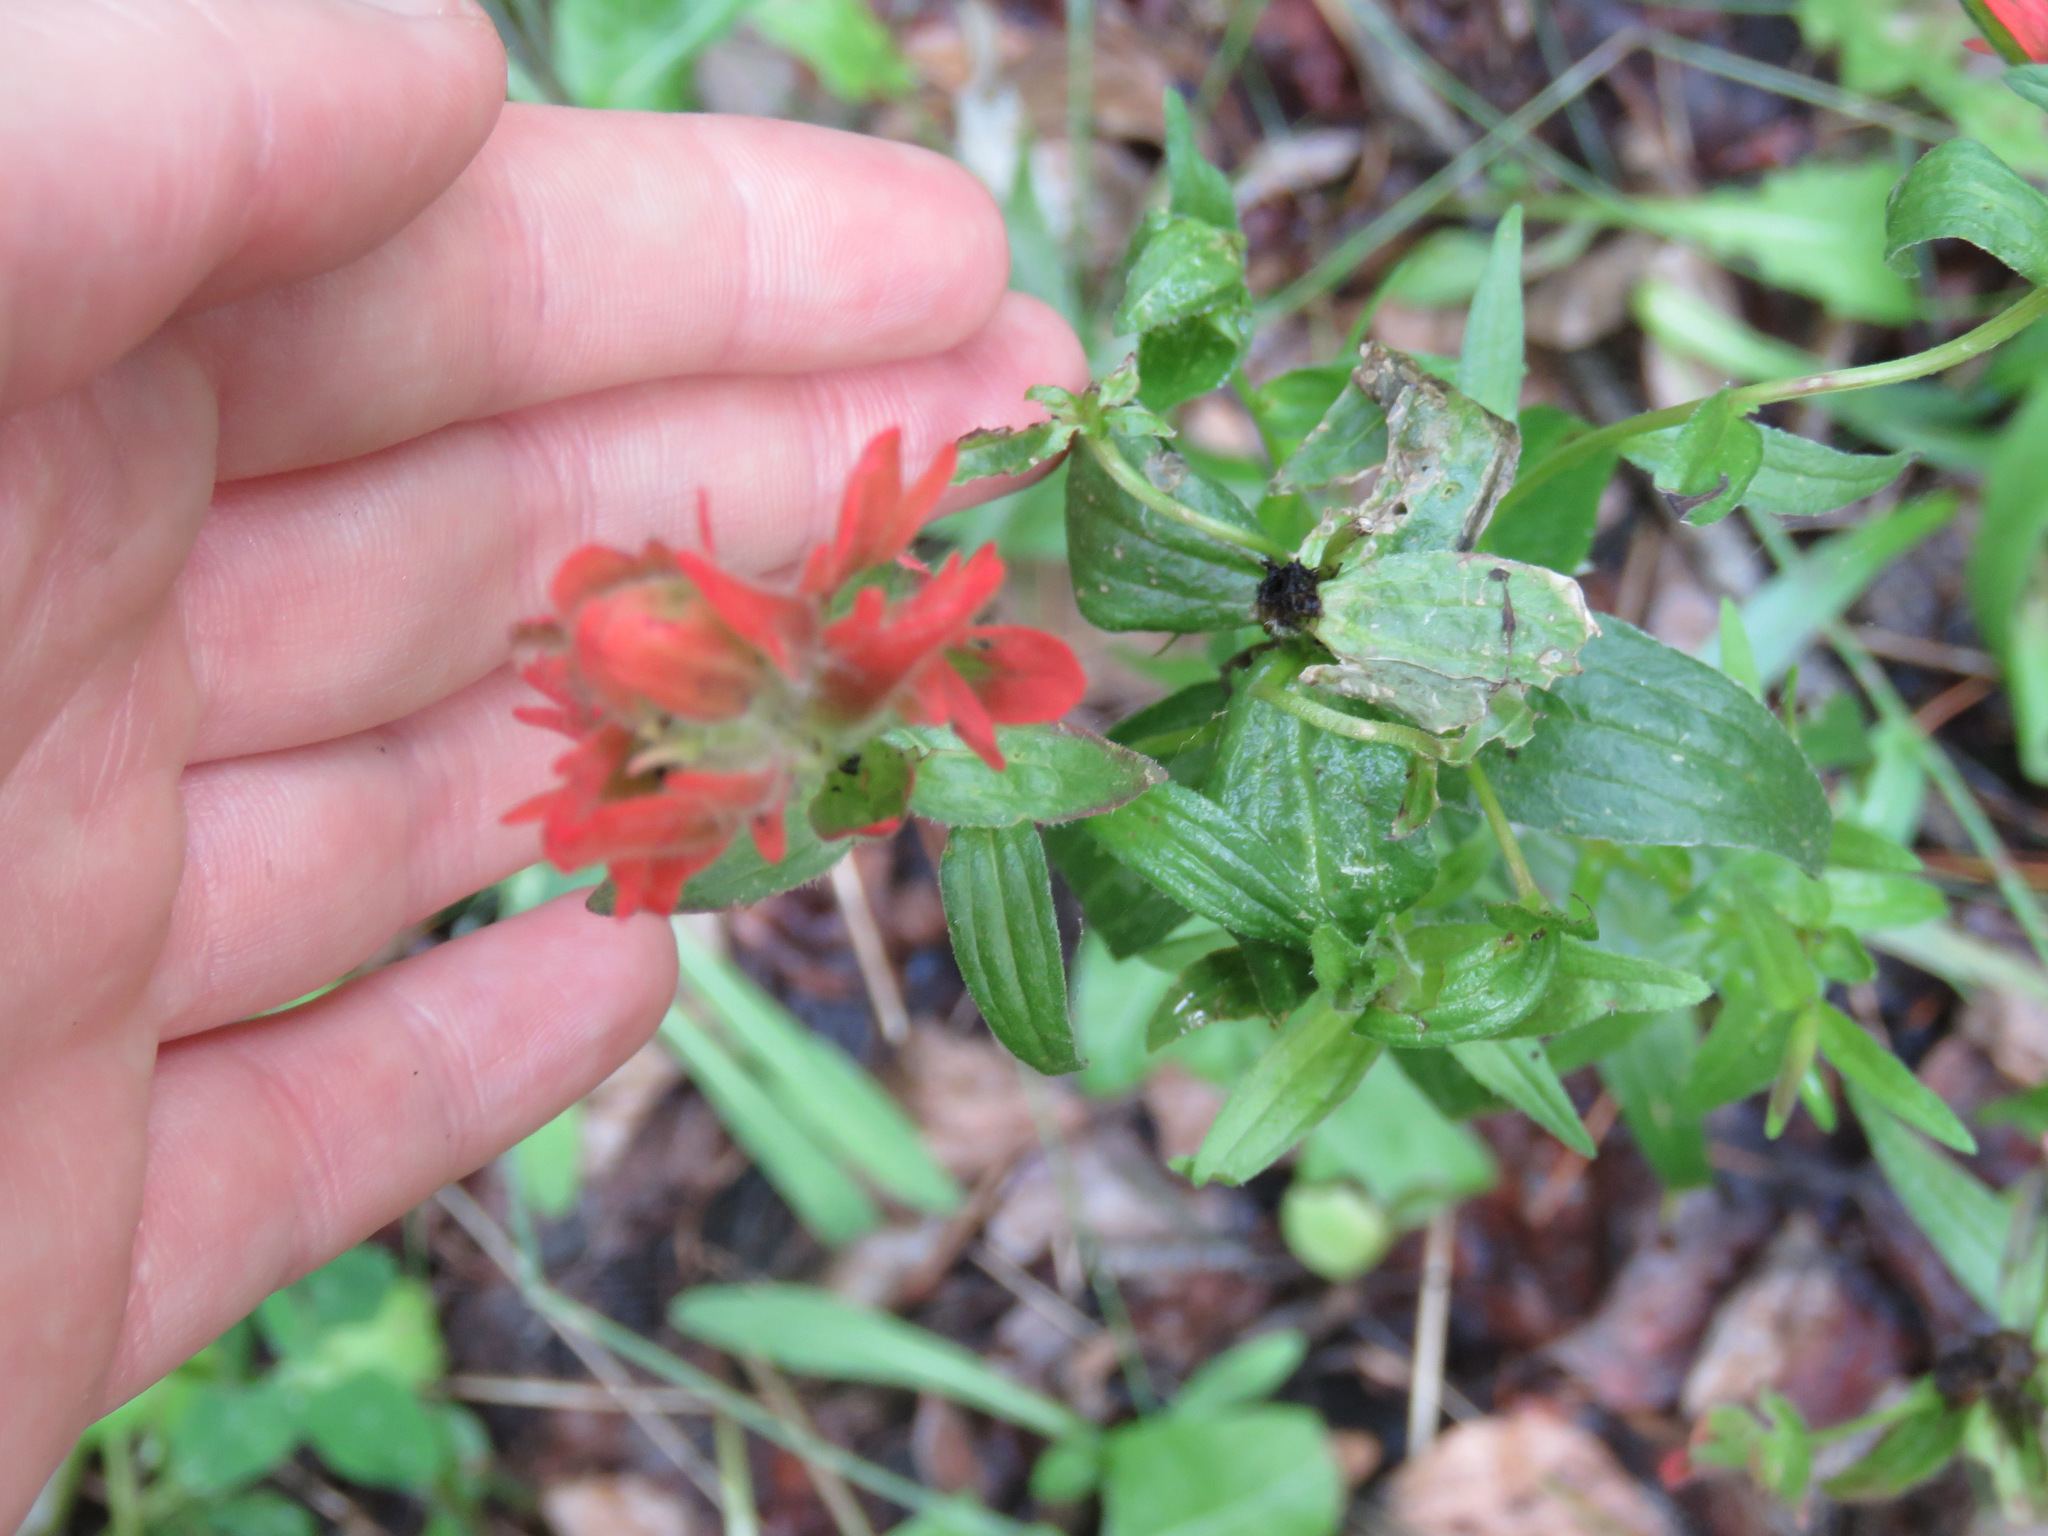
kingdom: Plantae
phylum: Tracheophyta
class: Magnoliopsida
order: Lamiales
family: Orobanchaceae
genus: Castilleja
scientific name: Castilleja miniata
